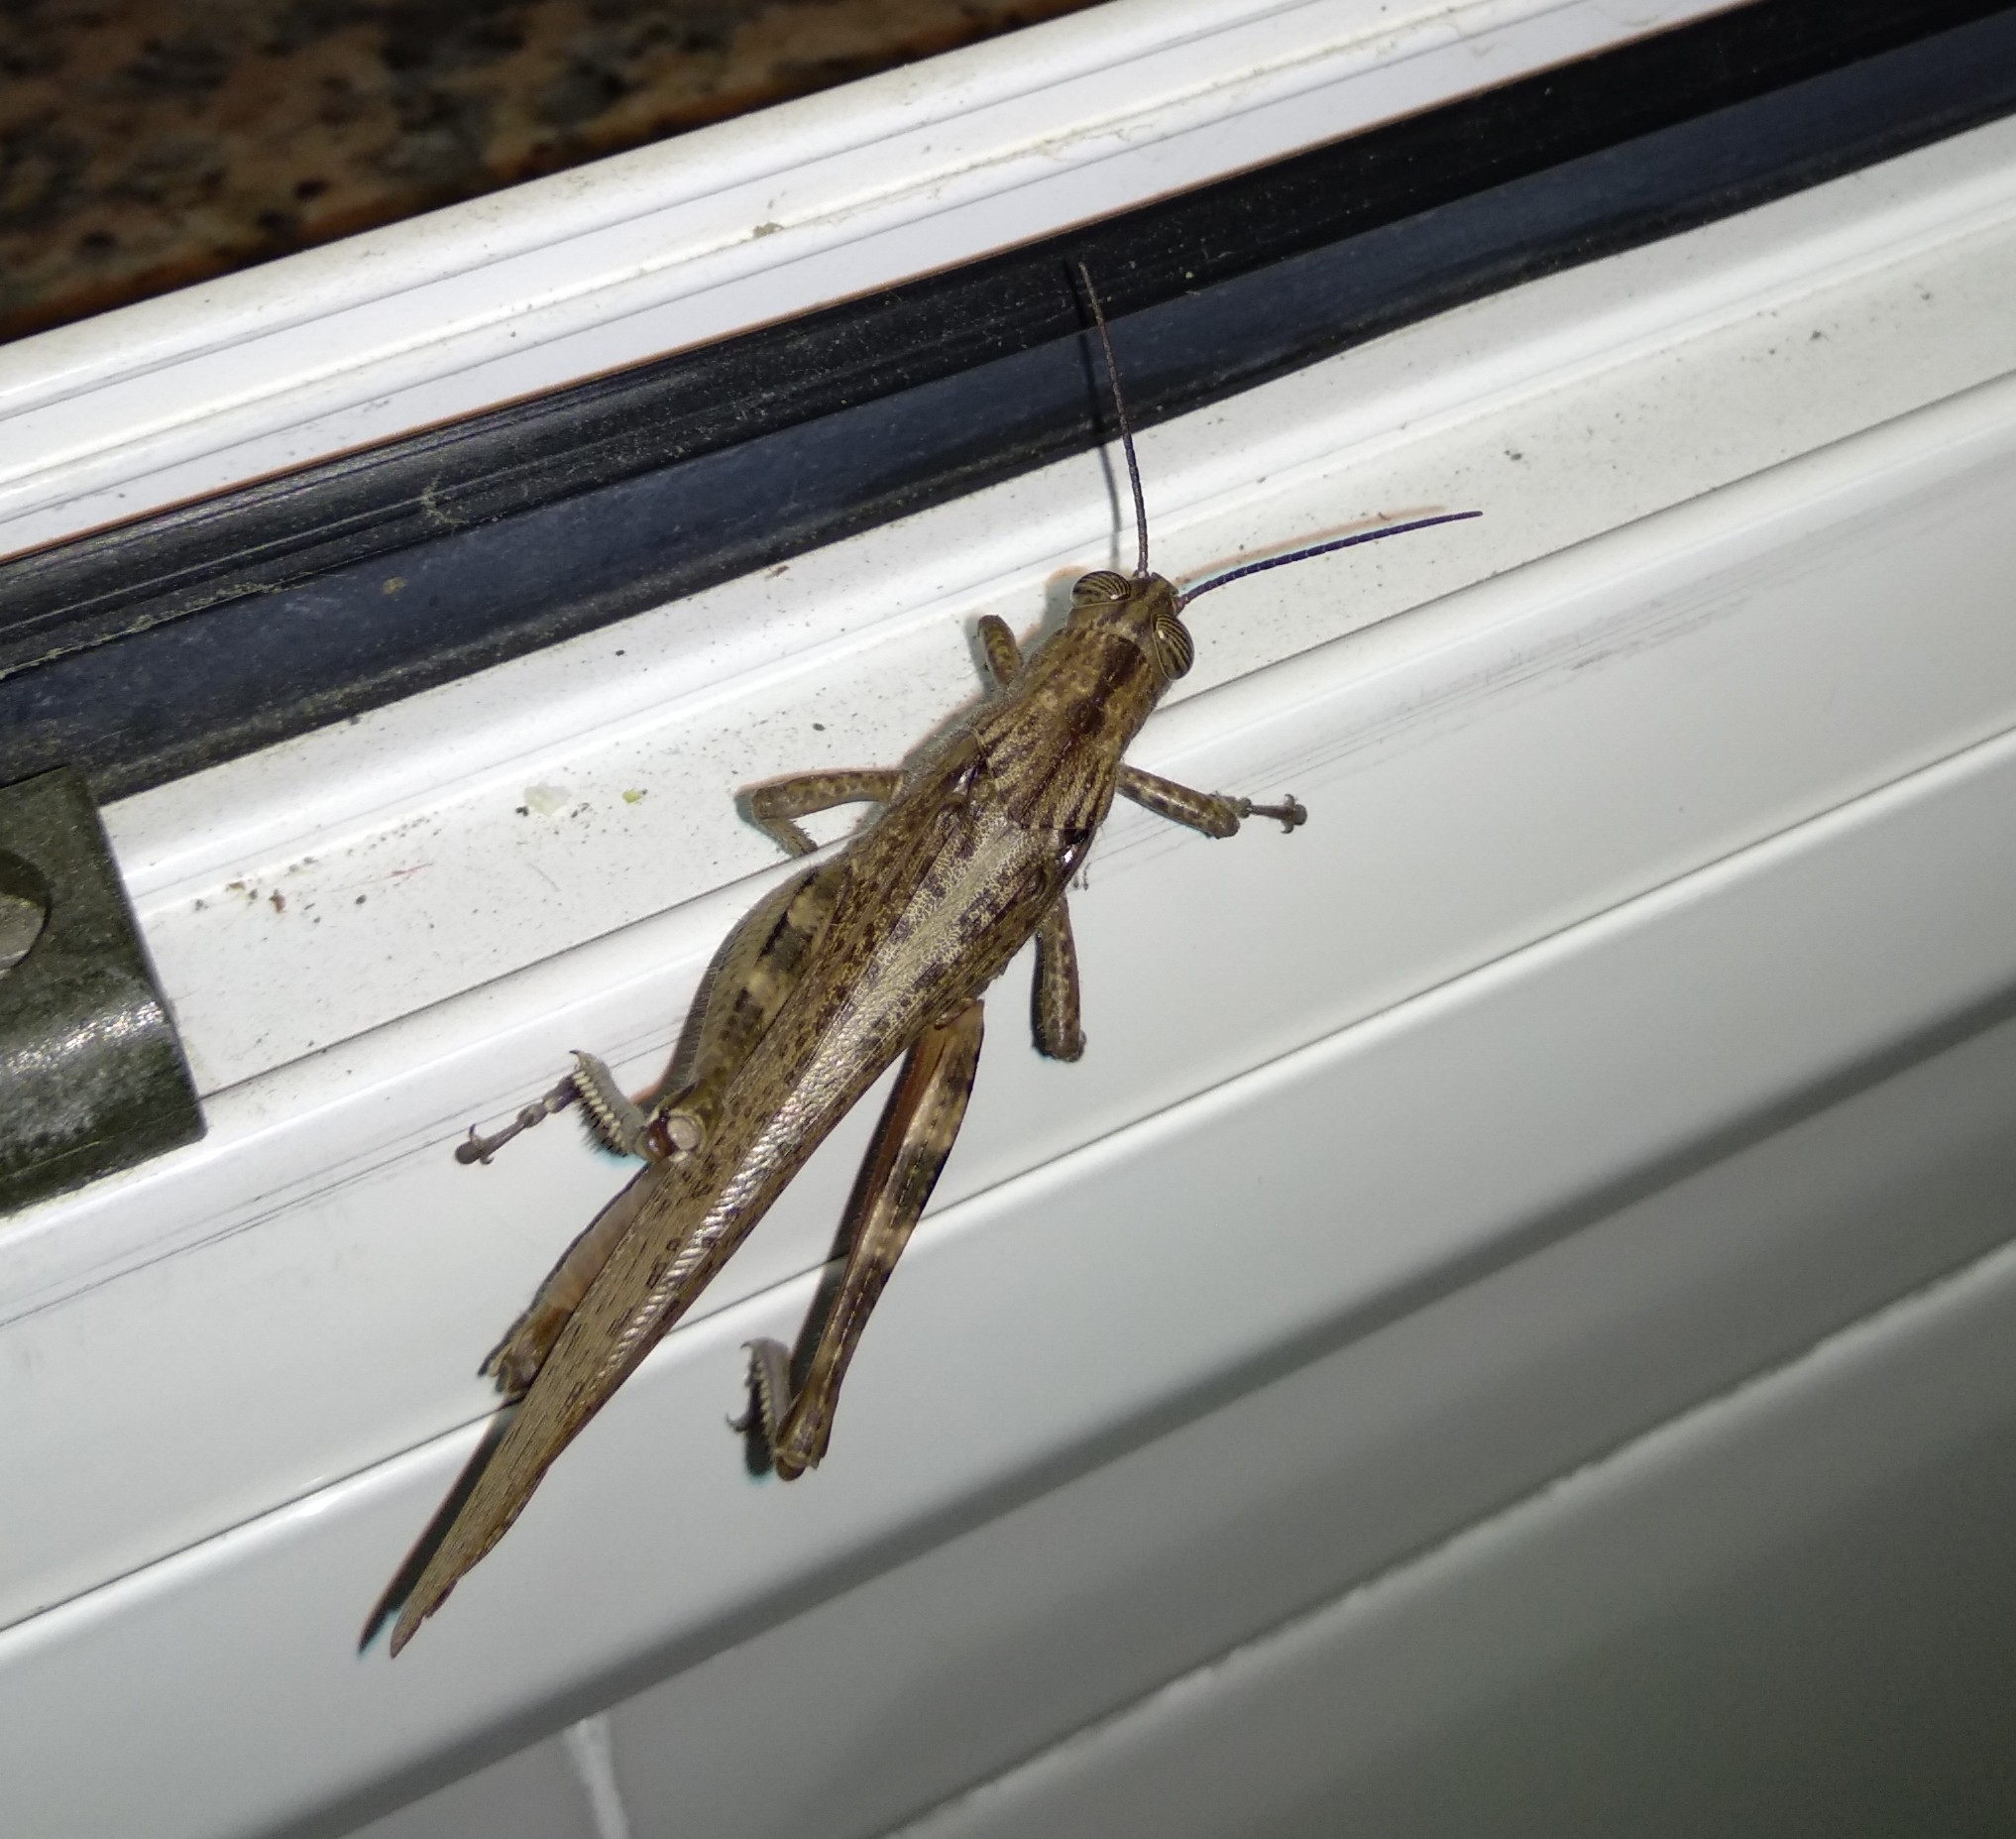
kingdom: Animalia
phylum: Arthropoda
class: Insecta
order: Orthoptera
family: Acrididae
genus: Anacridium
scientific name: Anacridium aegyptium
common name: Egyptian grasshopper
